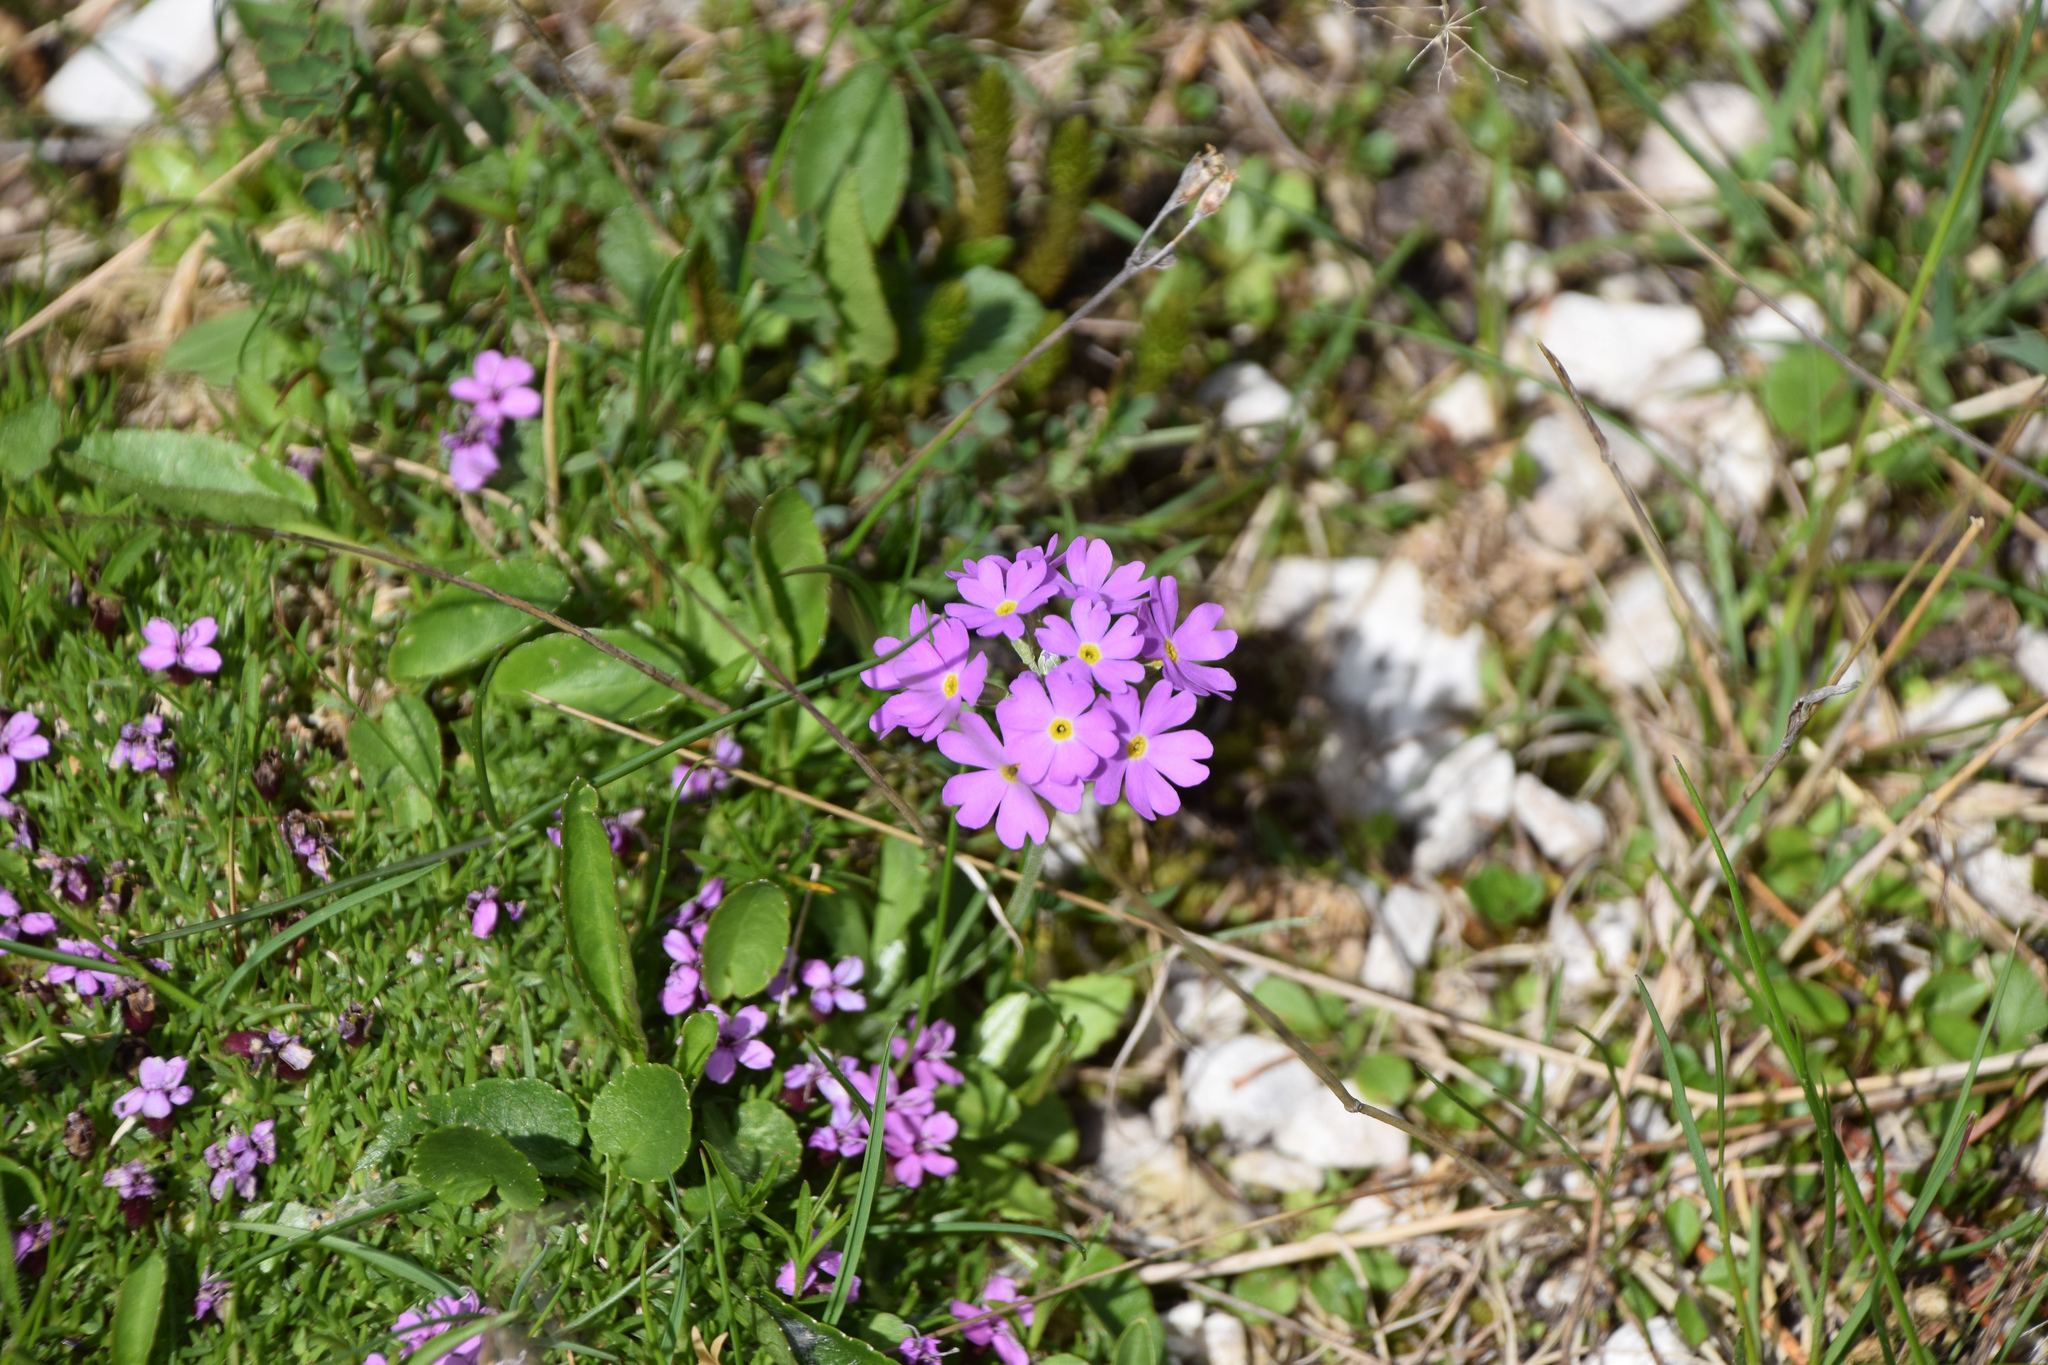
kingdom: Plantae
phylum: Tracheophyta
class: Magnoliopsida
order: Ericales
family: Primulaceae
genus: Primula
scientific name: Primula farinosa
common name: Bird's-eye primrose
